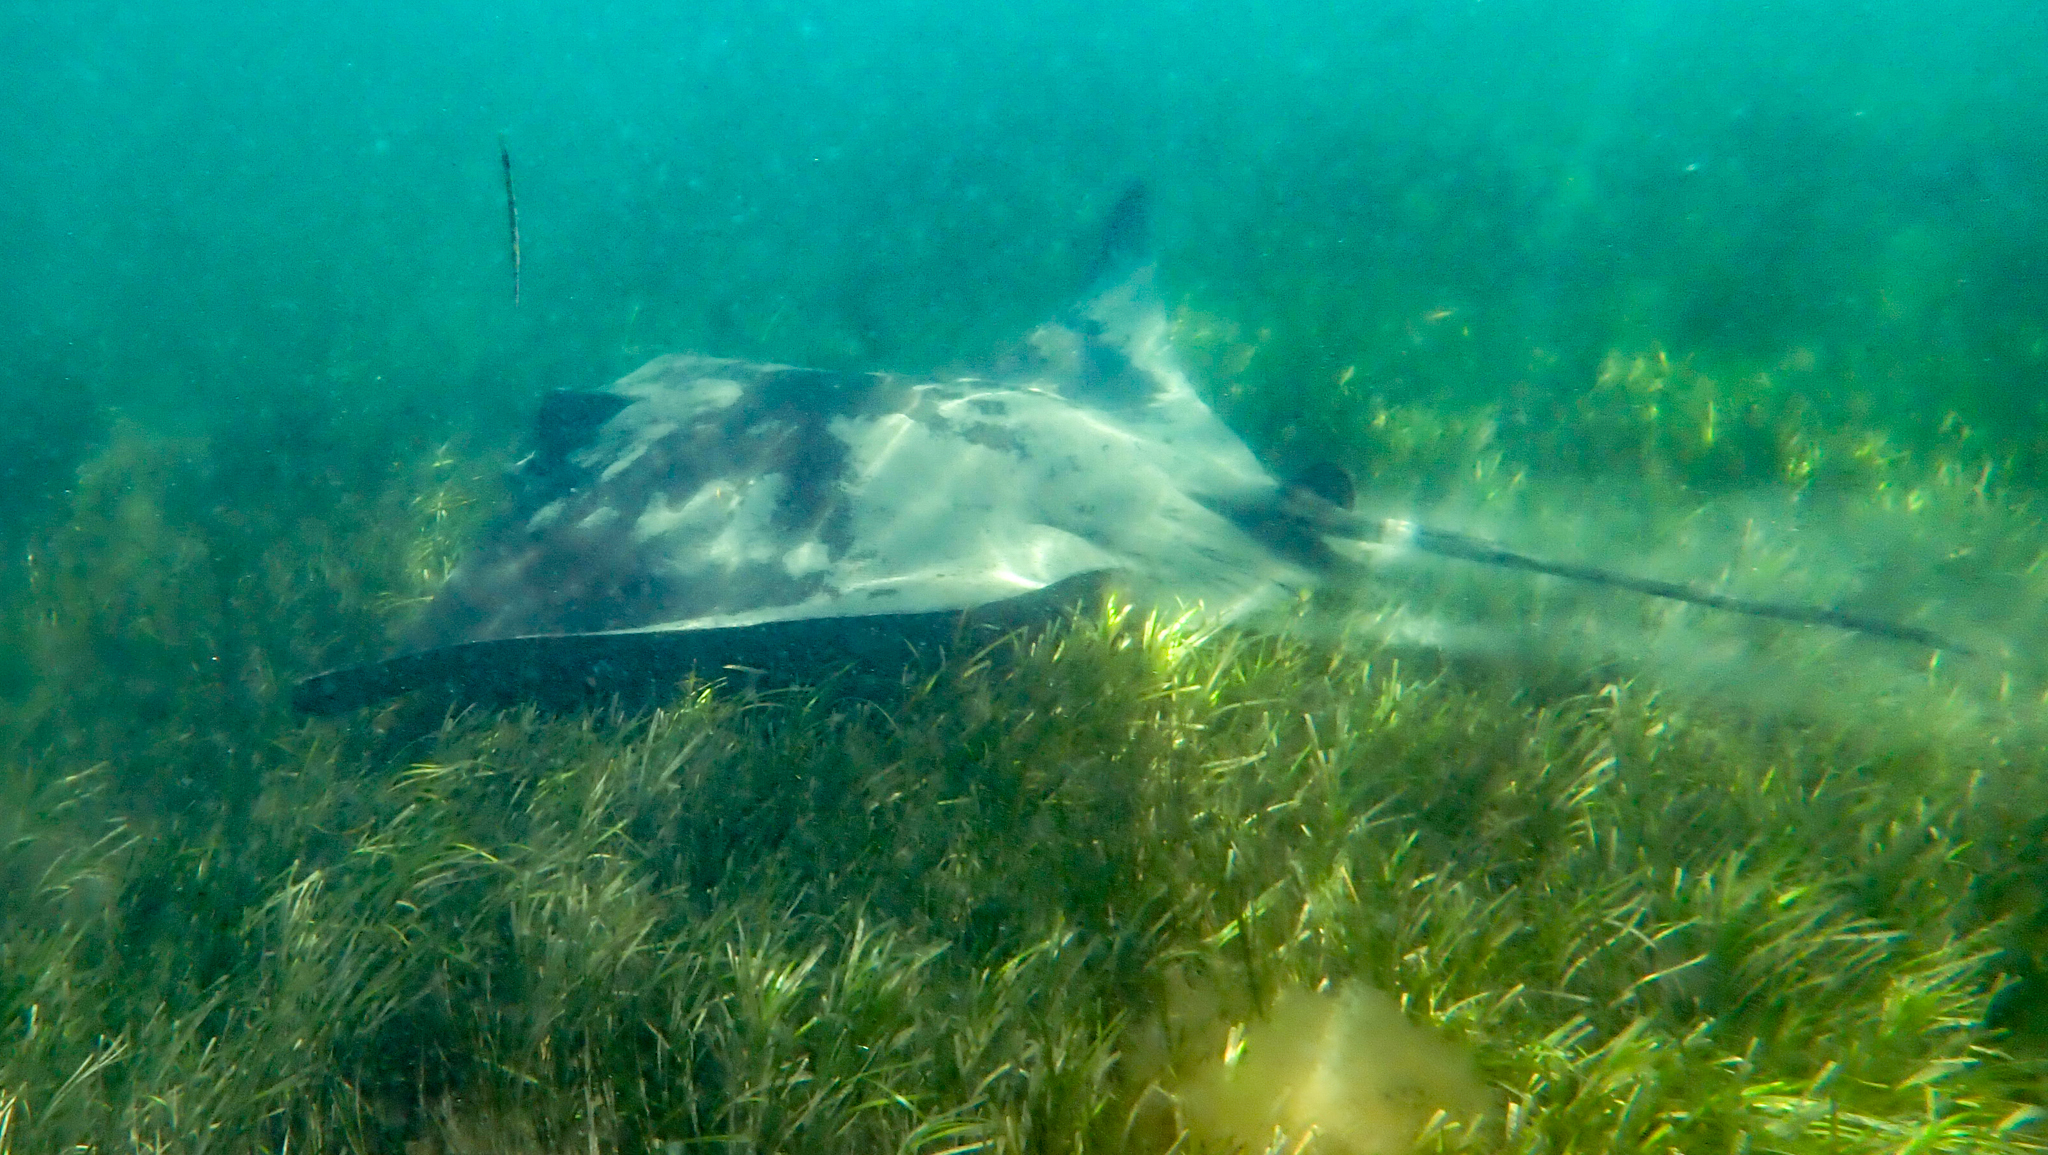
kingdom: Animalia
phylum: Chordata
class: Elasmobranchii
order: Myliobatiformes
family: Myliobatidae
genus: Myliobatis
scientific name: Myliobatis tenuicaudatus
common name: Eagle ray
